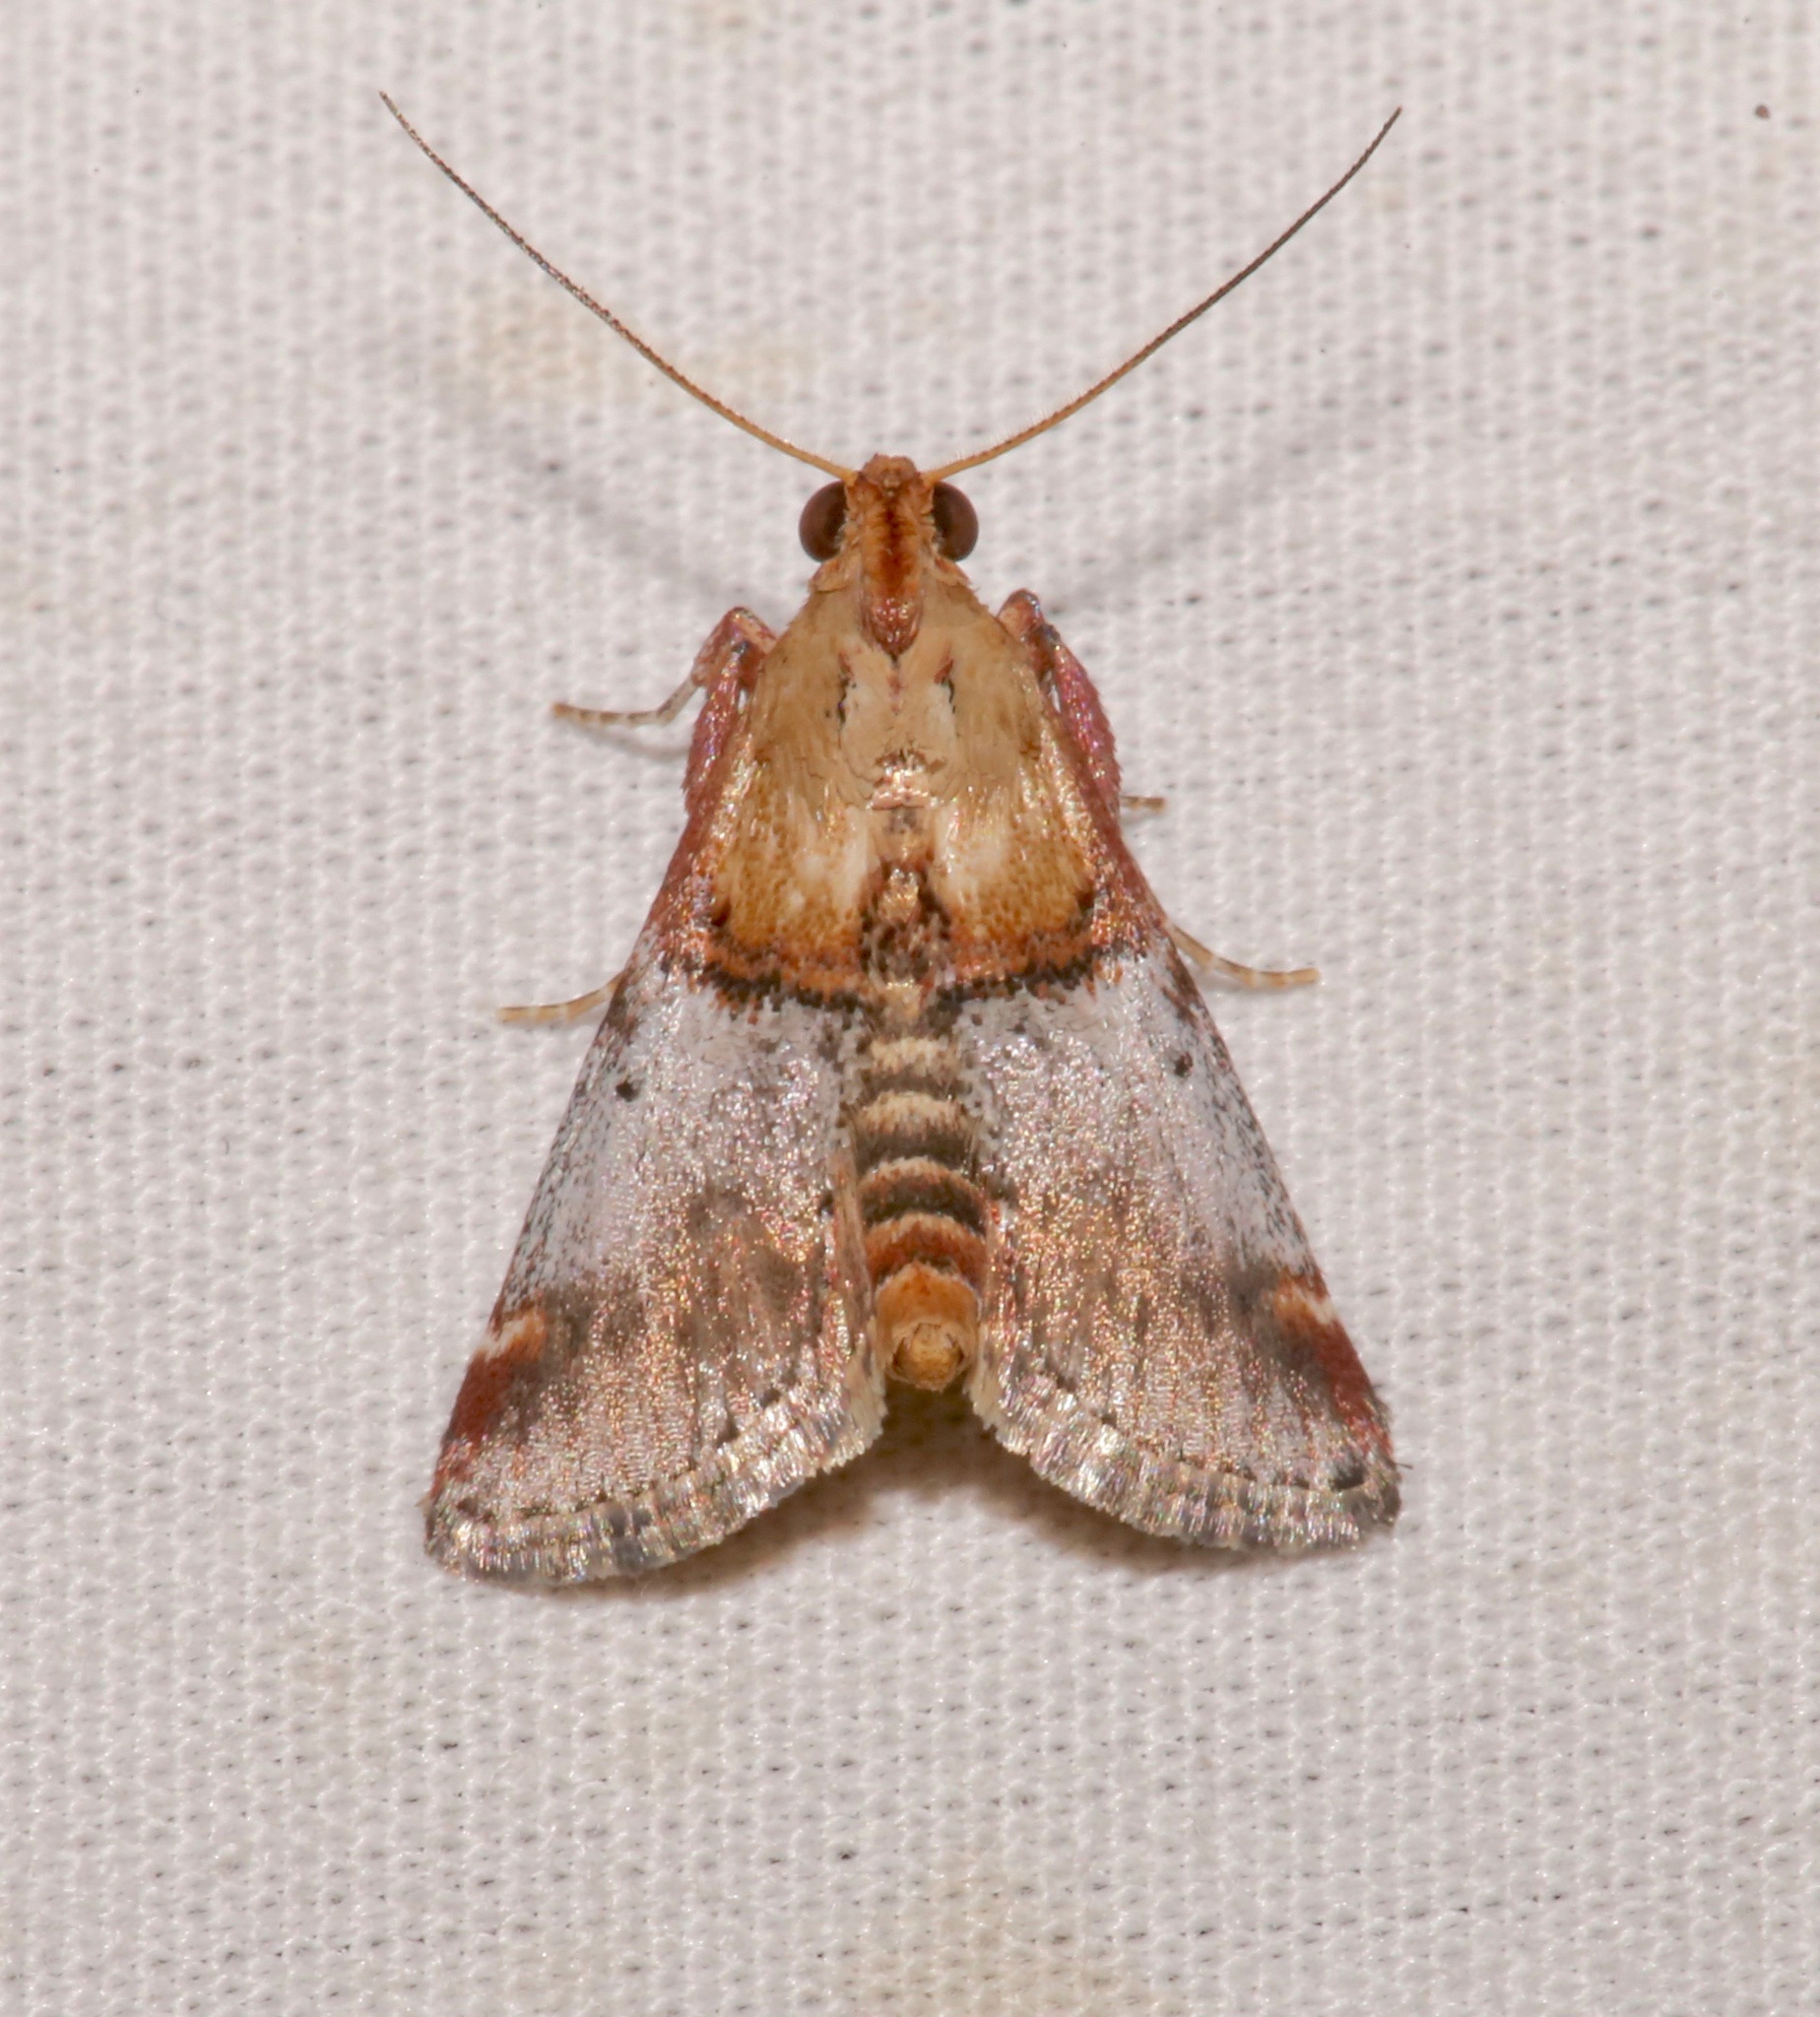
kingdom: Animalia
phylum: Arthropoda
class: Insecta
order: Lepidoptera
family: Pyralidae
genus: Cacozelia
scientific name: Cacozelia basiochrealis
